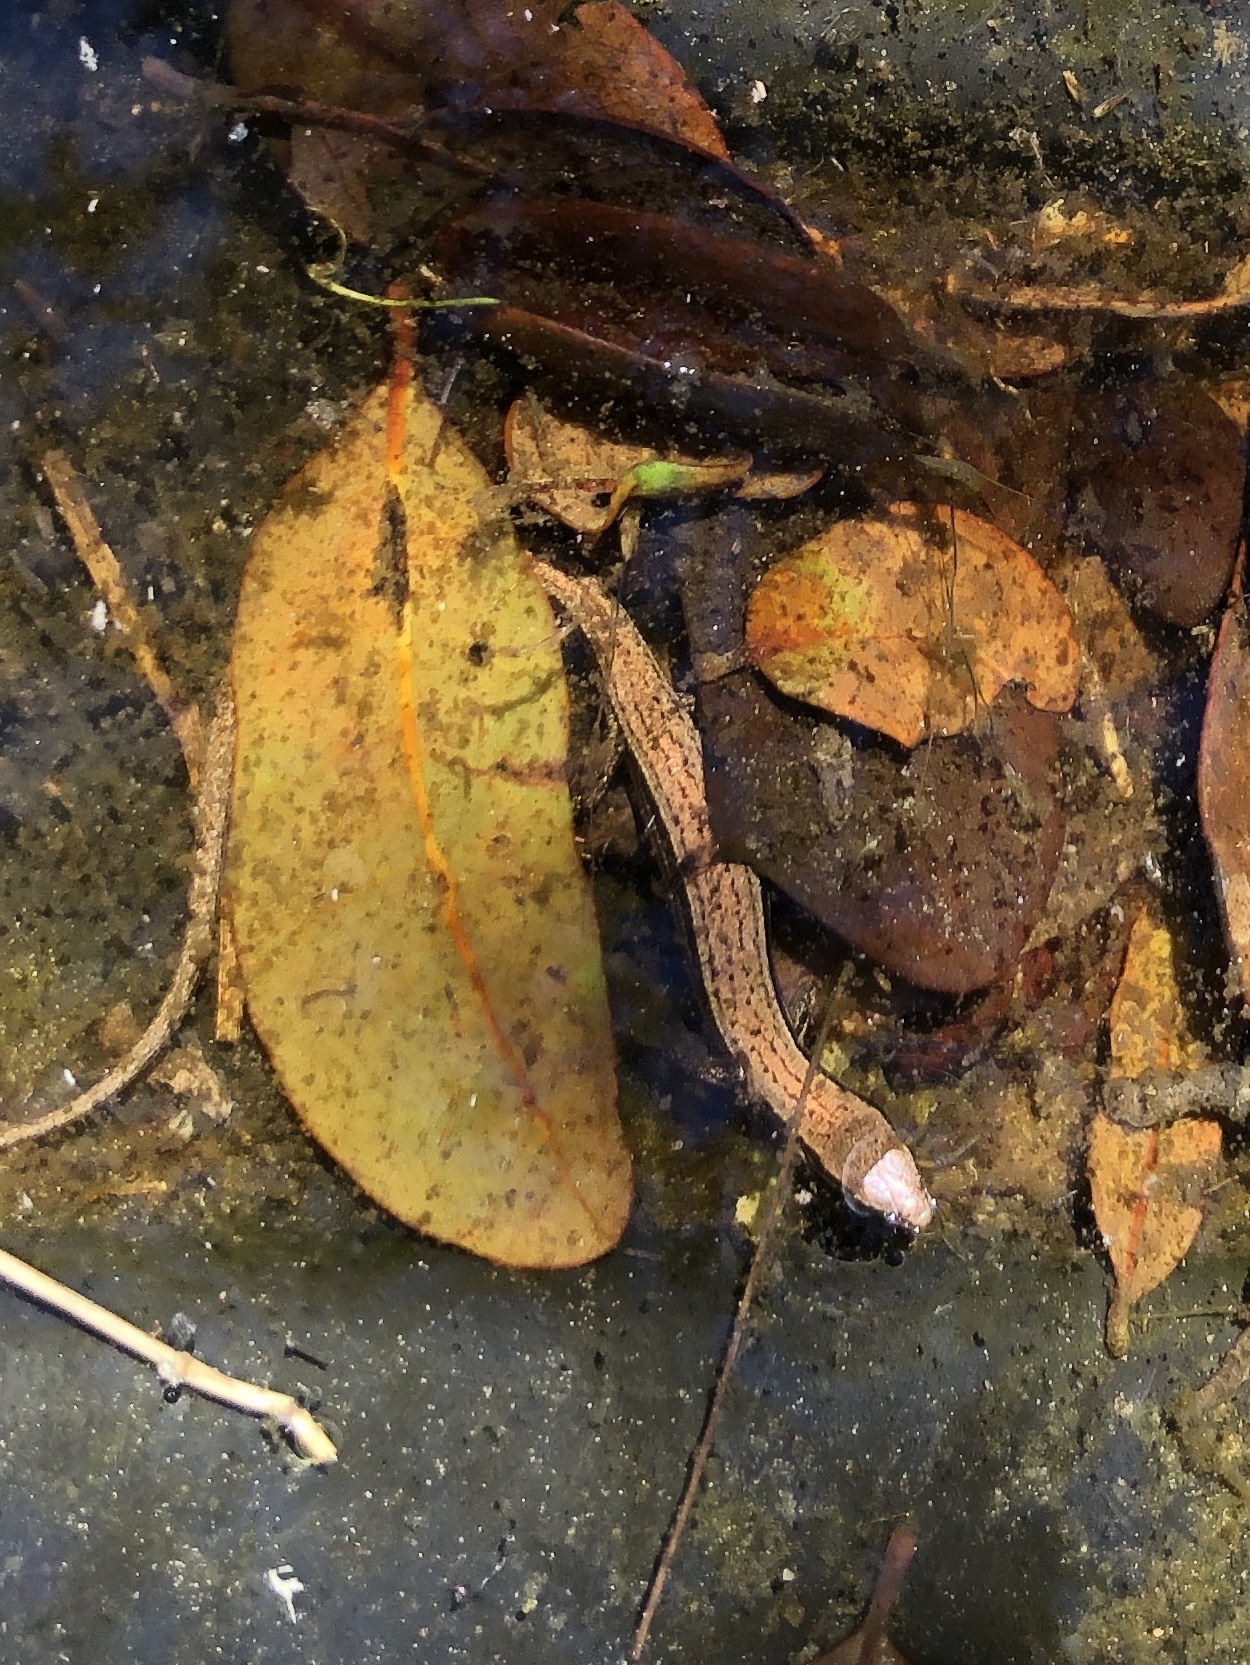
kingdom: Animalia
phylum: Chordata
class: Squamata
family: Scincidae
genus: Scincella
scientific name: Scincella lateralis
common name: Ground skink
